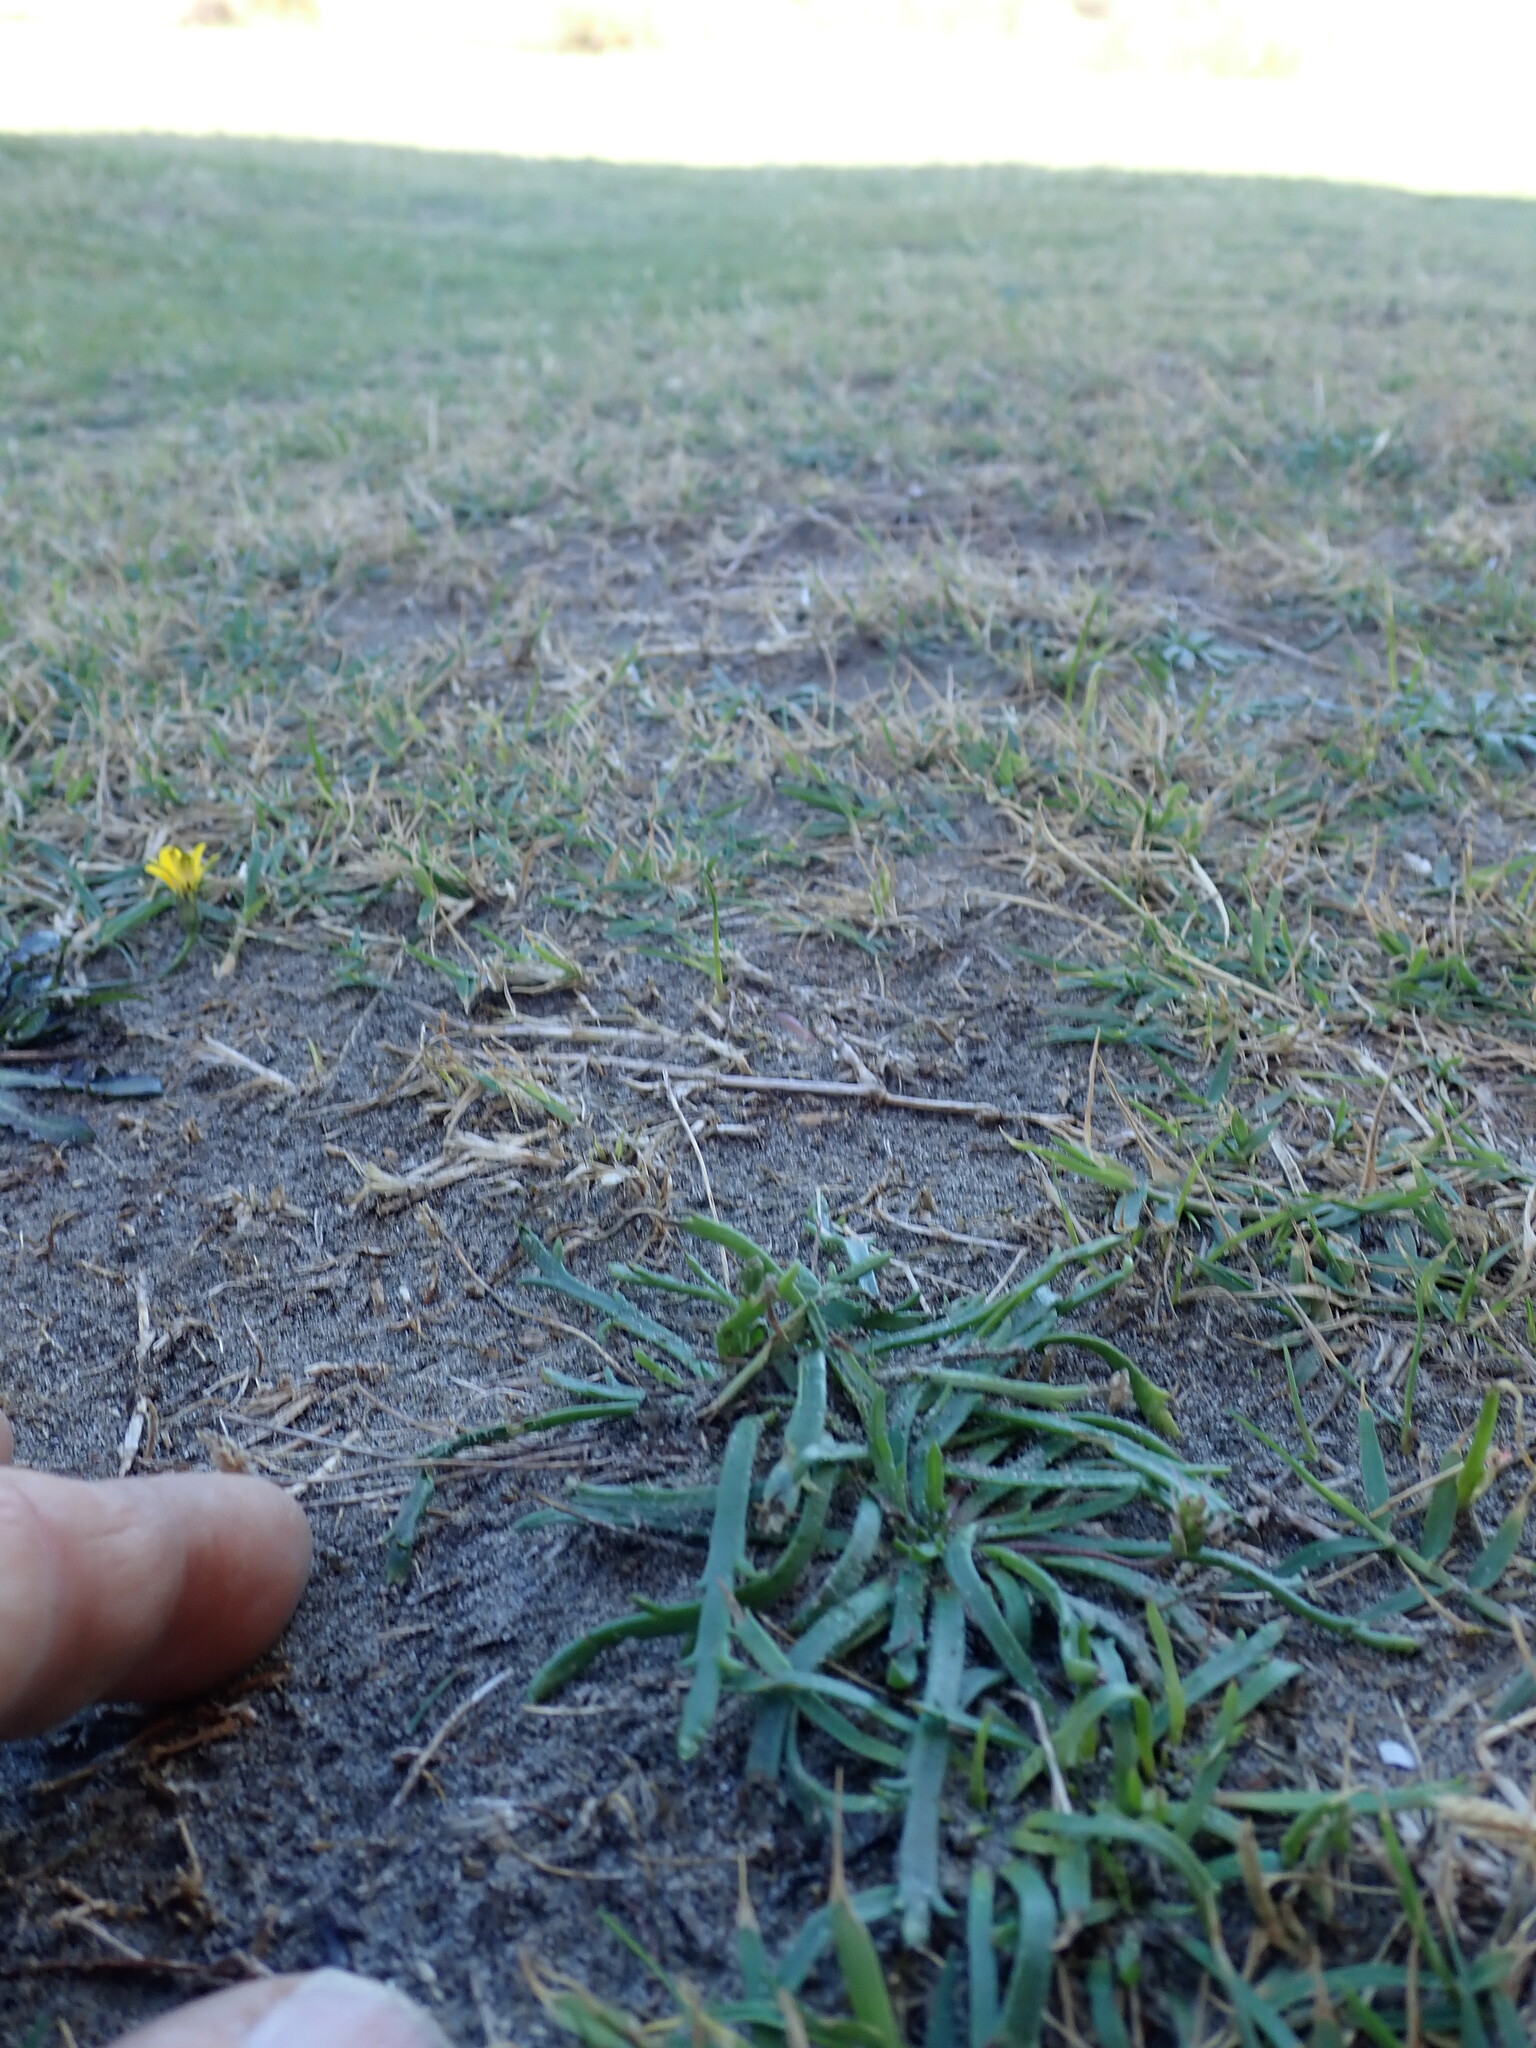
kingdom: Plantae
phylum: Tracheophyta
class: Magnoliopsida
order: Lamiales
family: Plantaginaceae
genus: Plantago
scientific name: Plantago coronopus
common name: Buck's-horn plantain
